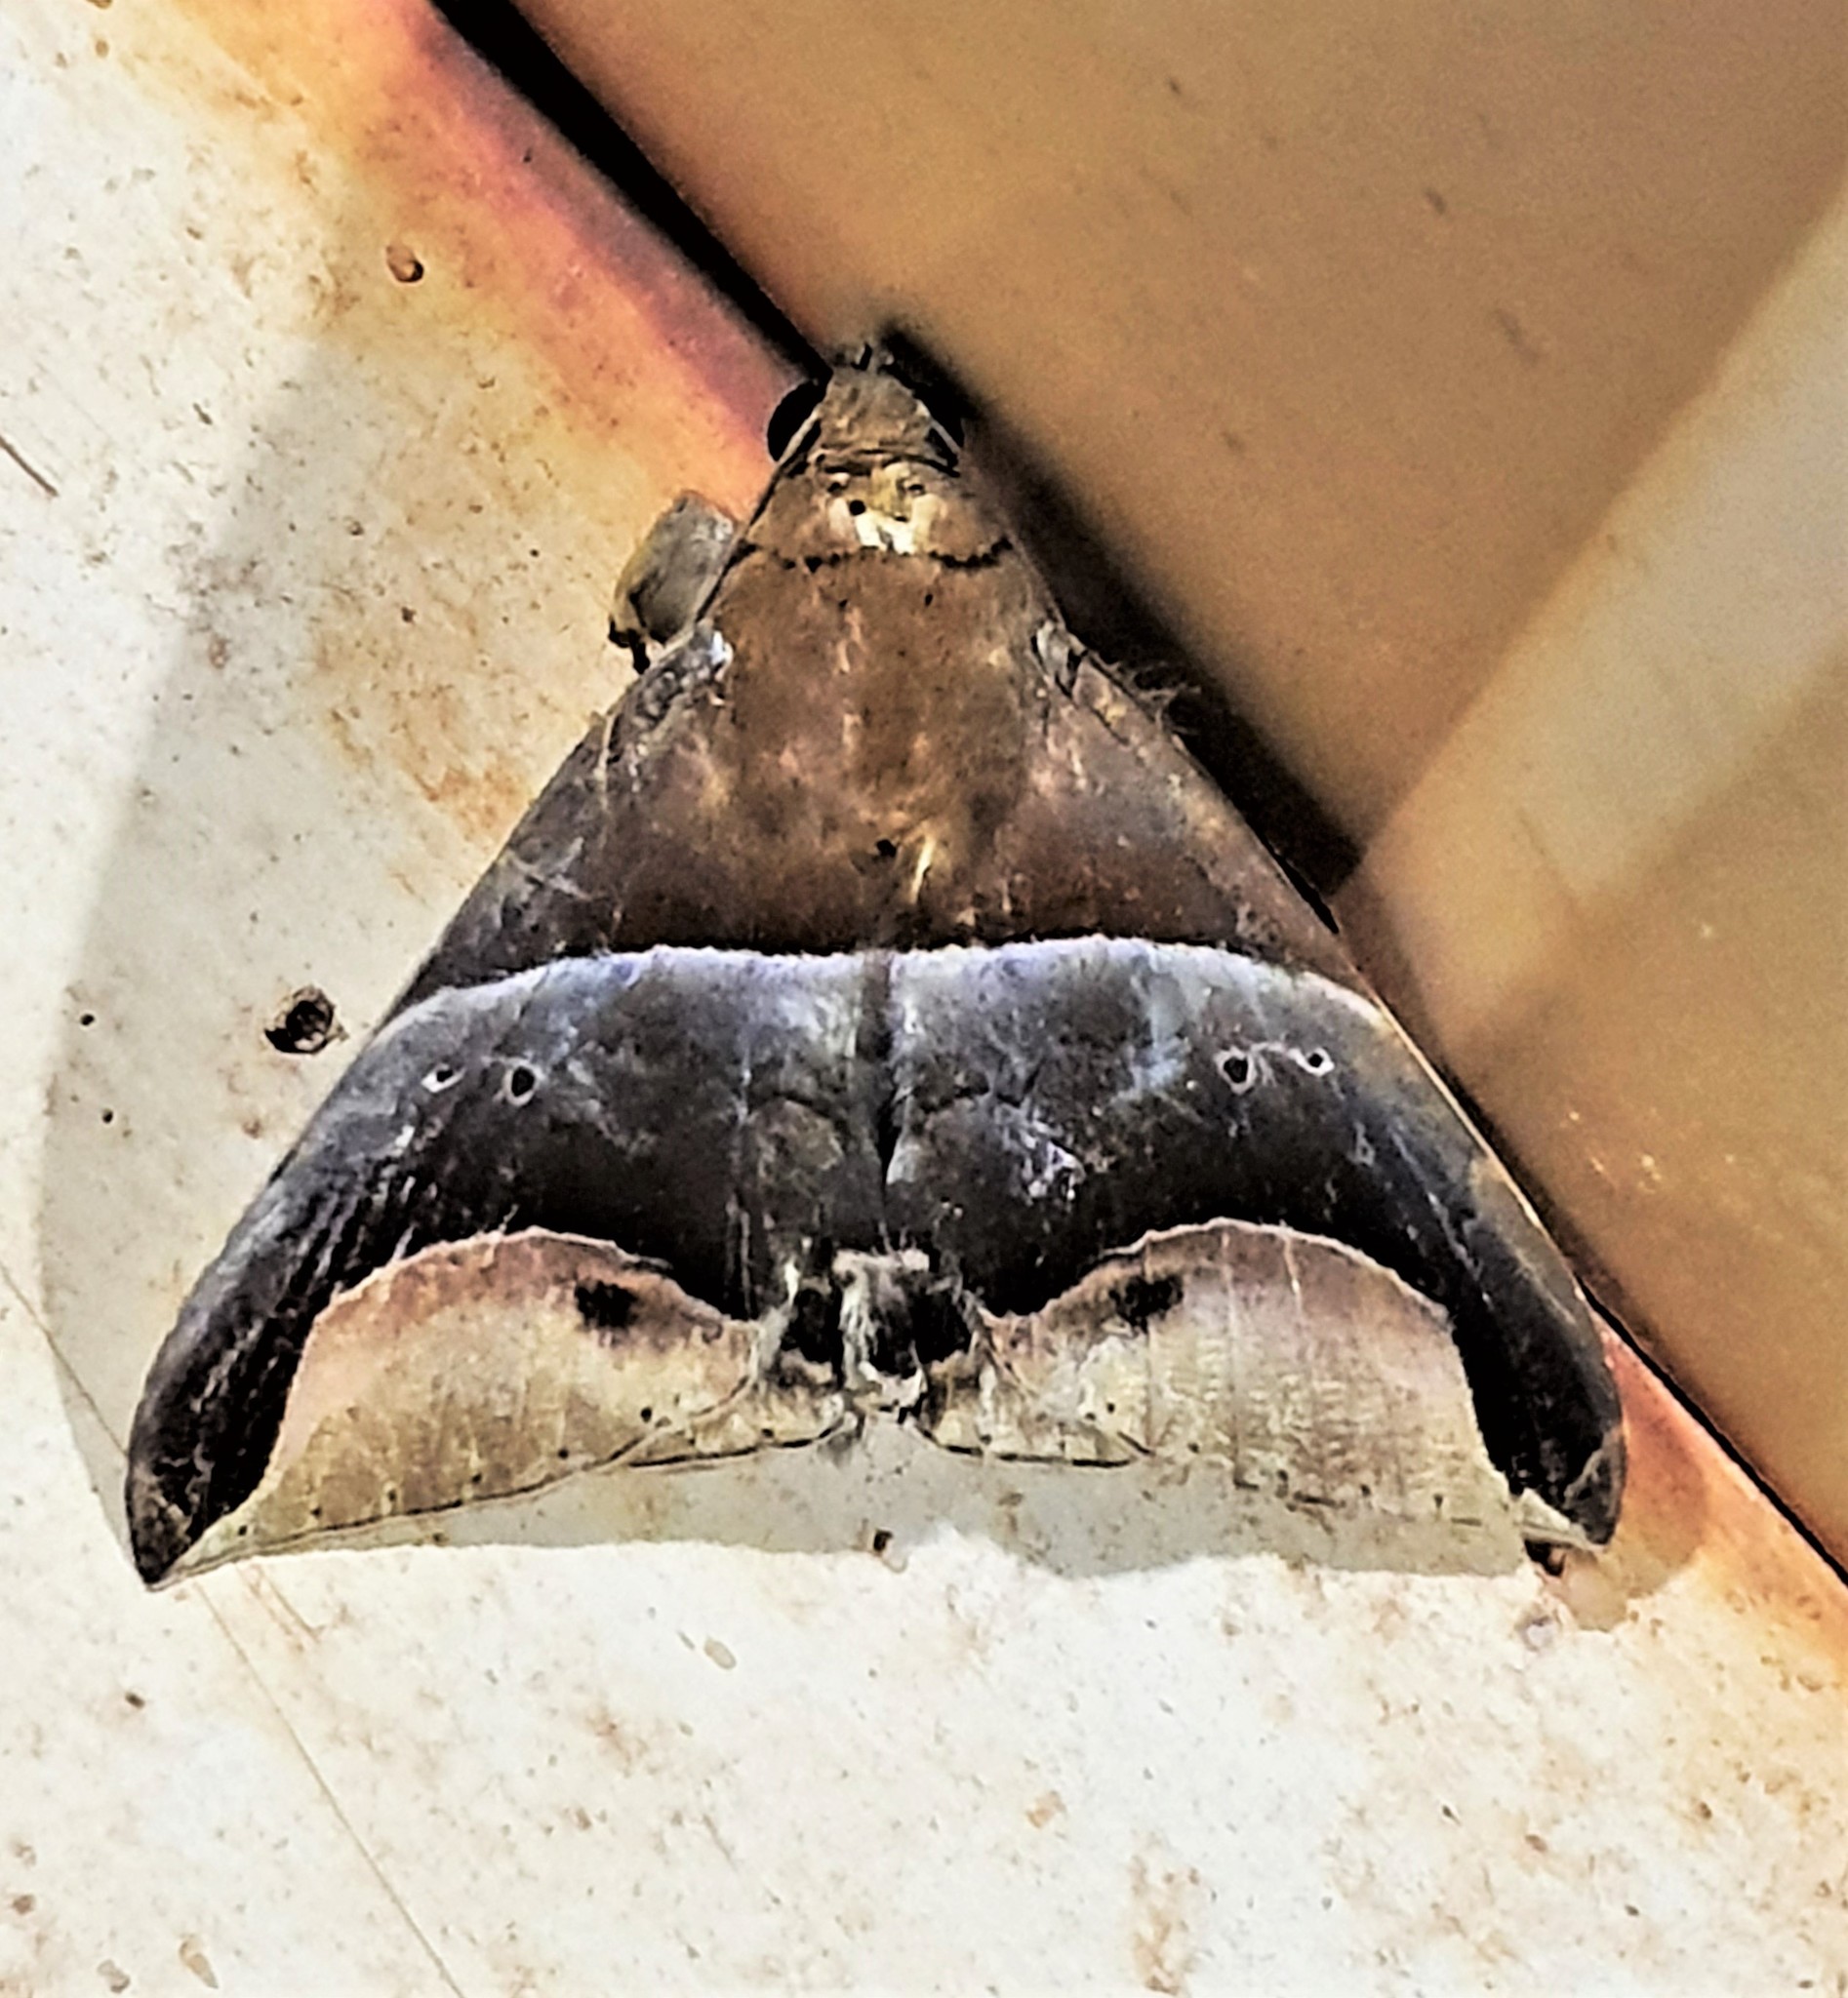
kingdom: Animalia
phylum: Arthropoda
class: Insecta
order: Lepidoptera
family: Erebidae
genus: Parachaea
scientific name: Parachaea macaria
